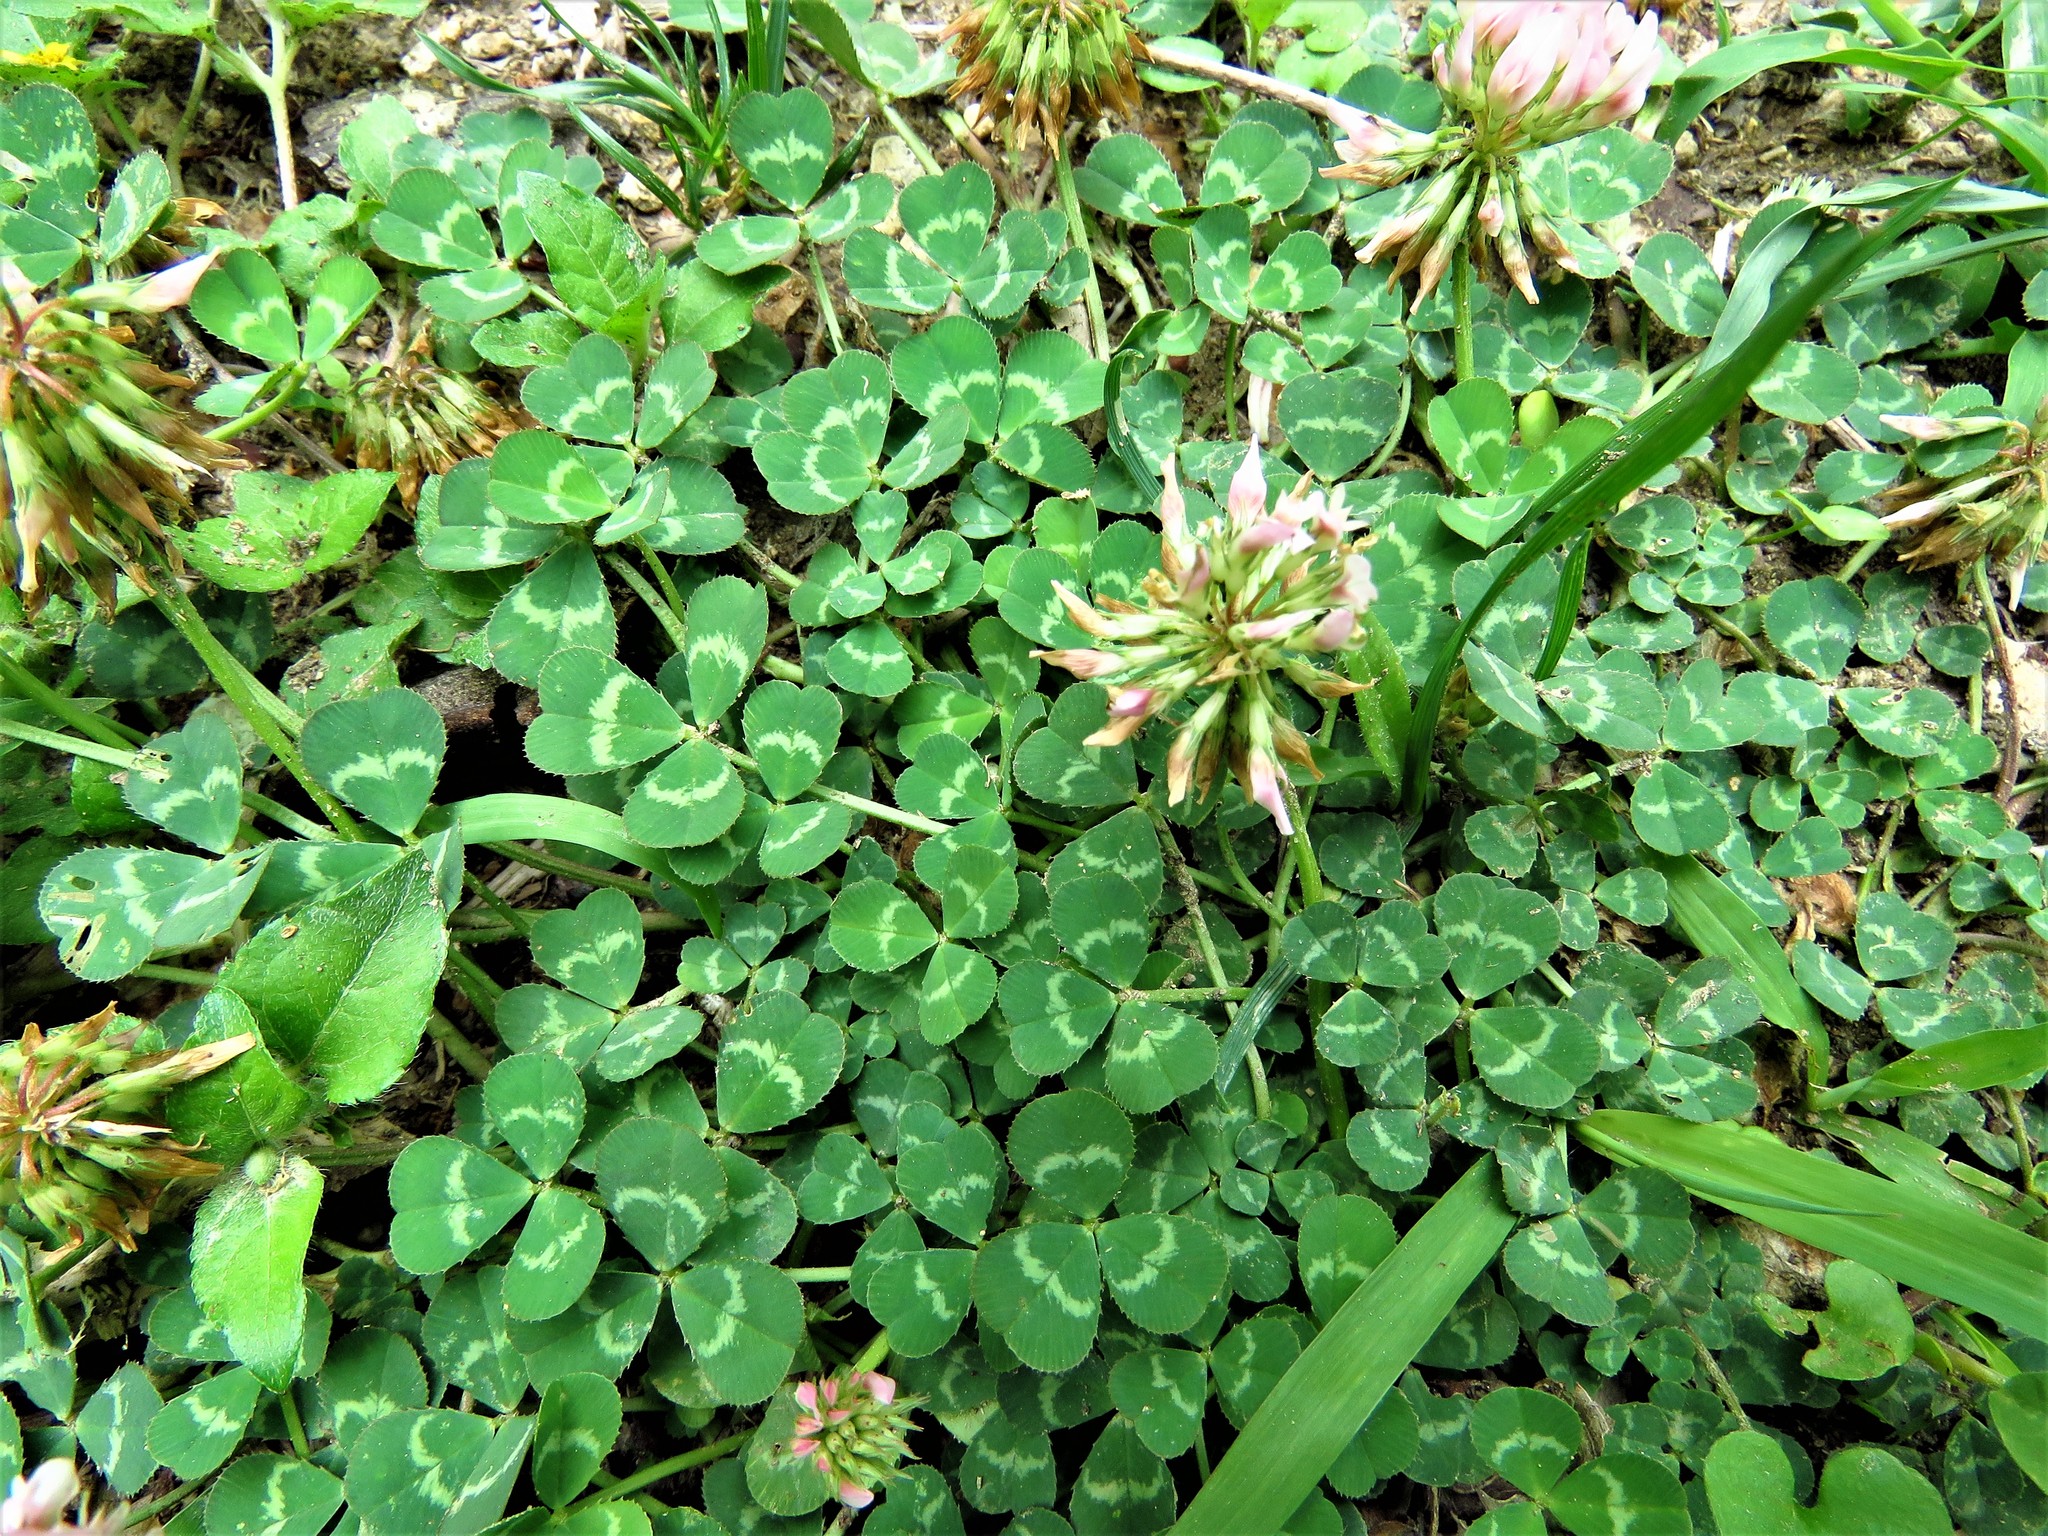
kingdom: Plantae
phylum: Tracheophyta
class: Magnoliopsida
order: Fabales
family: Fabaceae
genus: Trifolium
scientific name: Trifolium repens
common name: White clover
